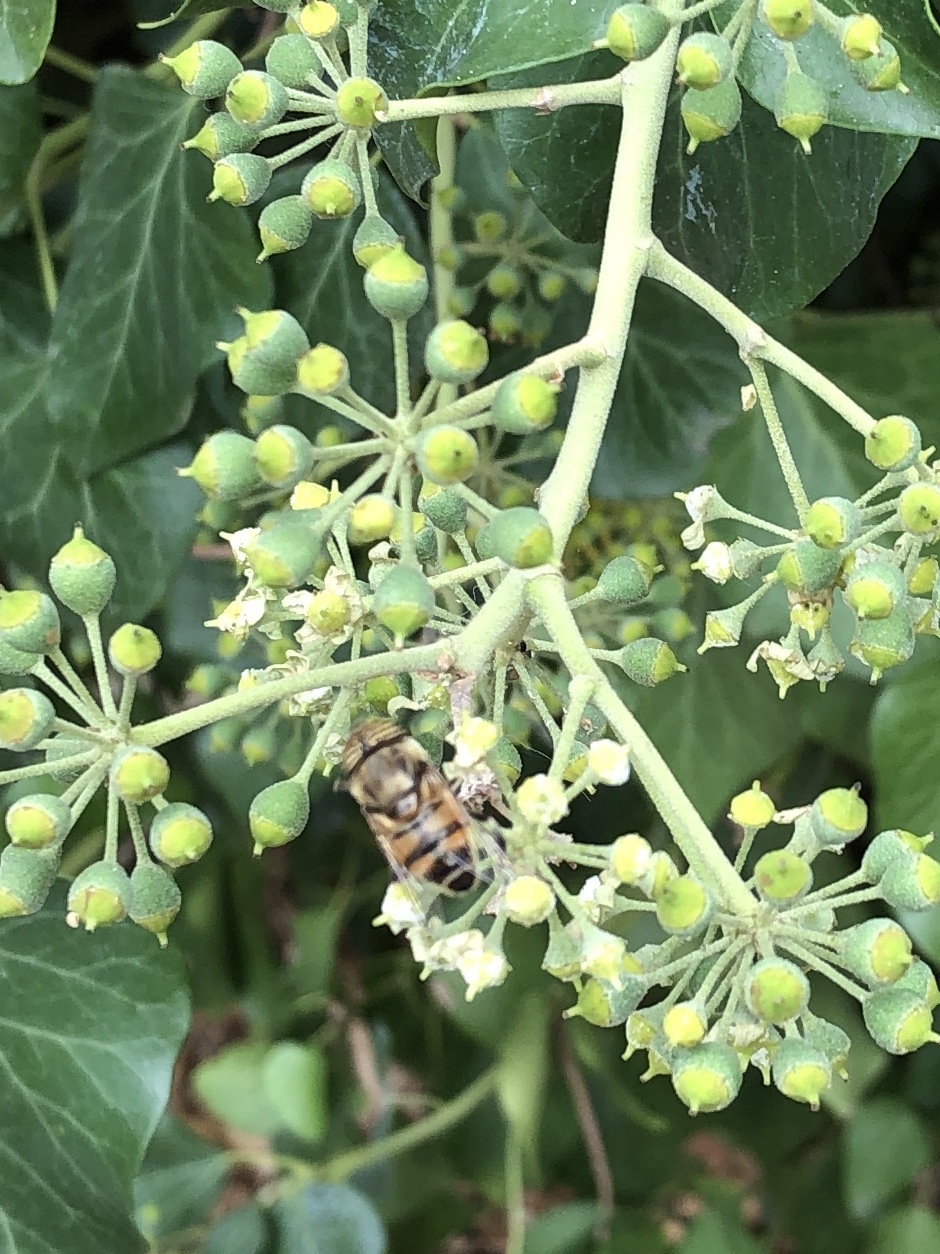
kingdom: Animalia
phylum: Arthropoda
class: Insecta
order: Diptera
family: Syrphidae
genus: Eristalinus
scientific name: Eristalinus taeniops
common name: Syrphid fly
